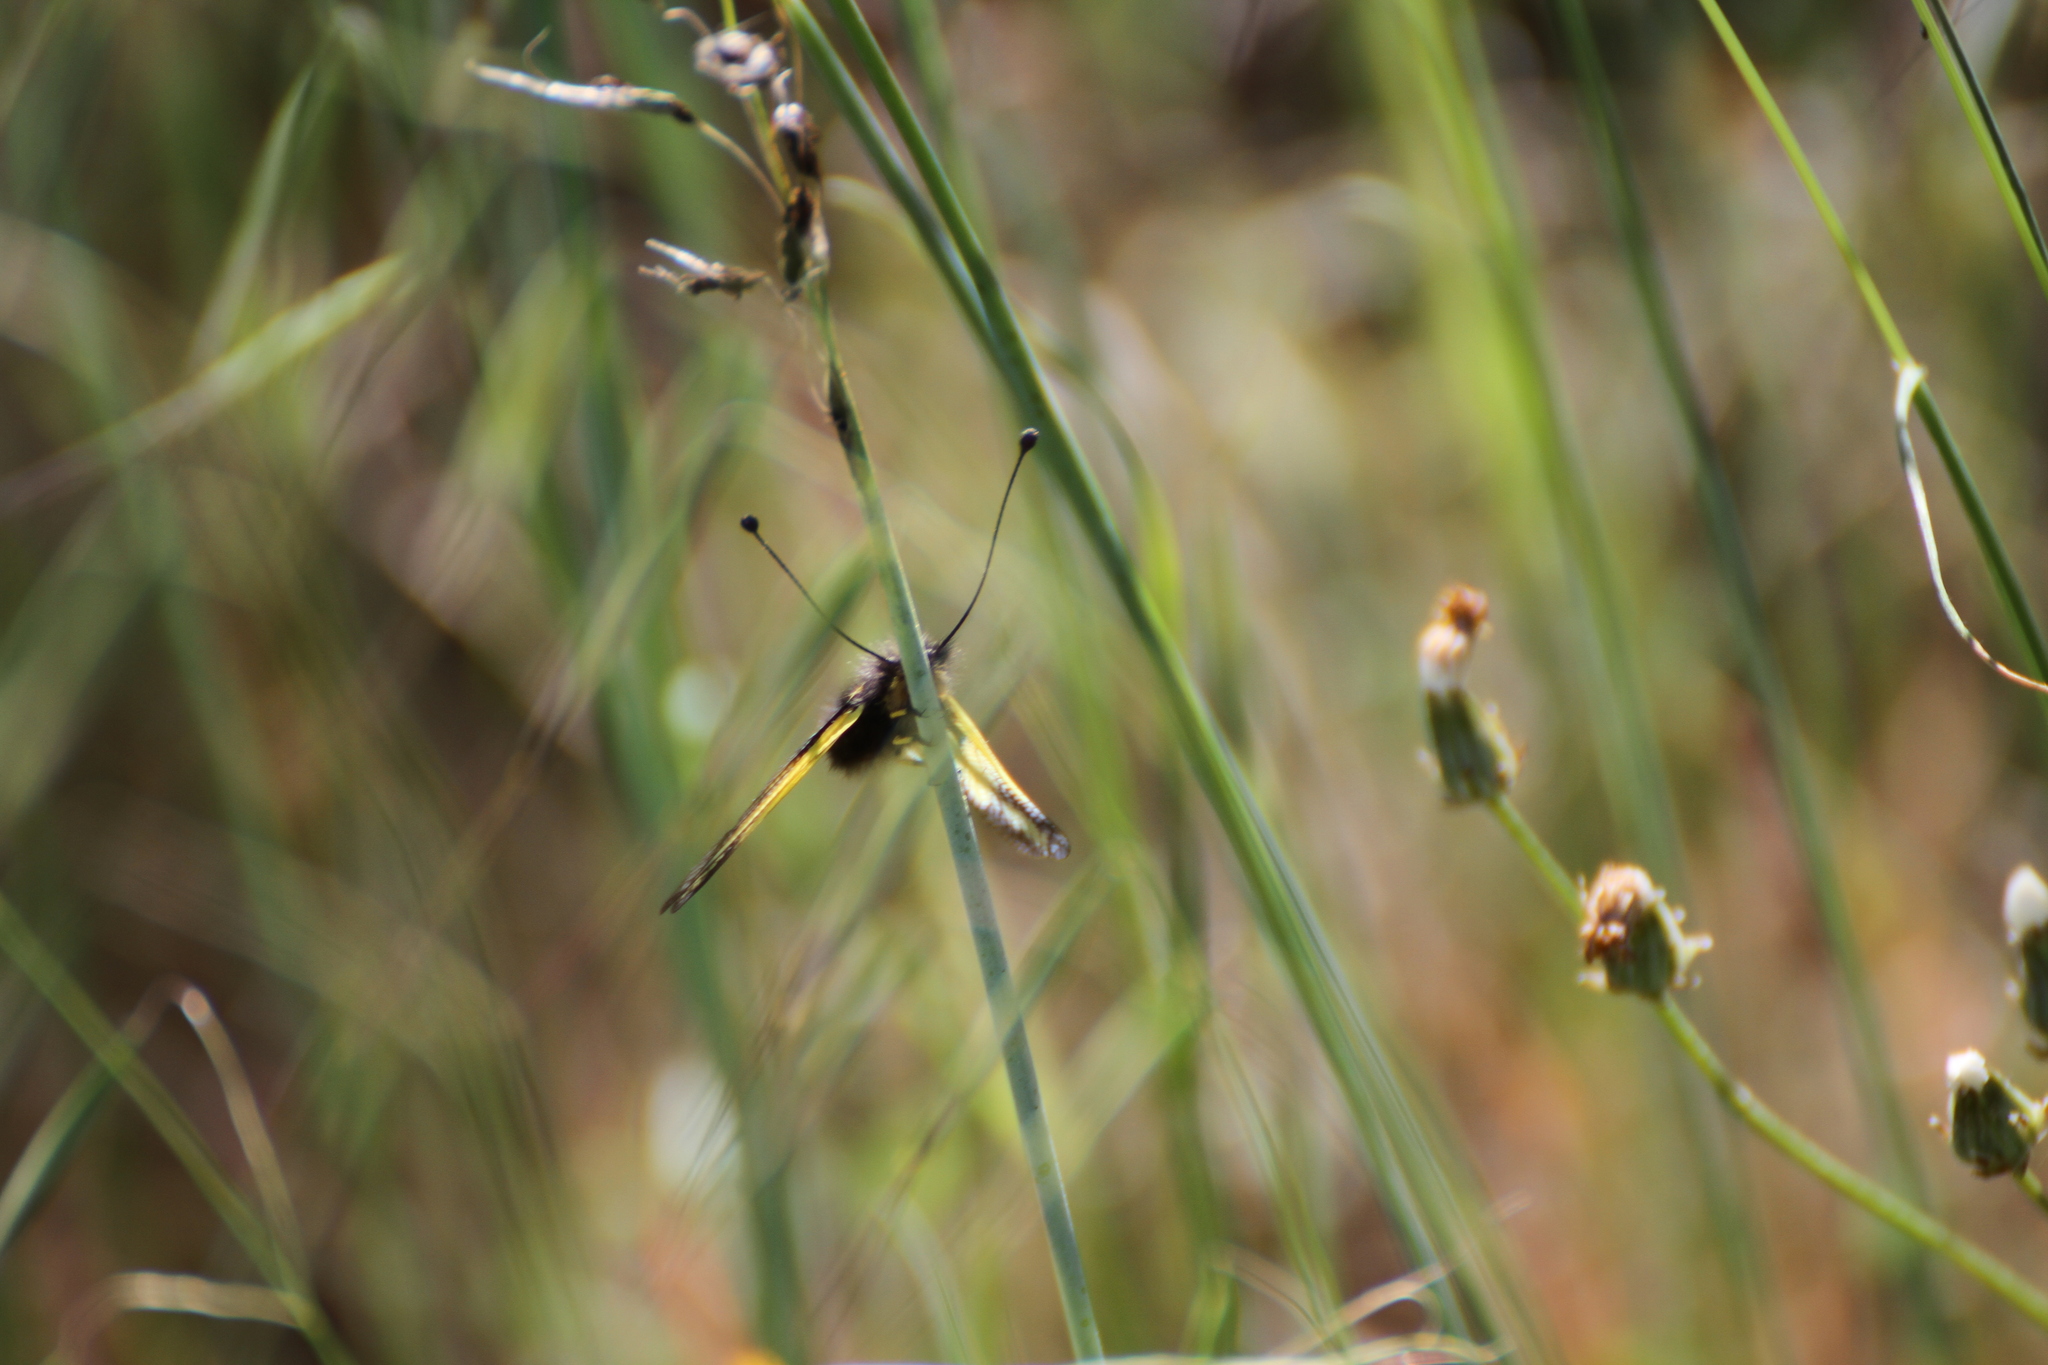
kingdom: Animalia
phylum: Arthropoda
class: Insecta
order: Neuroptera
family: Ascalaphidae
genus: Libelloides
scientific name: Libelloides coccajus
